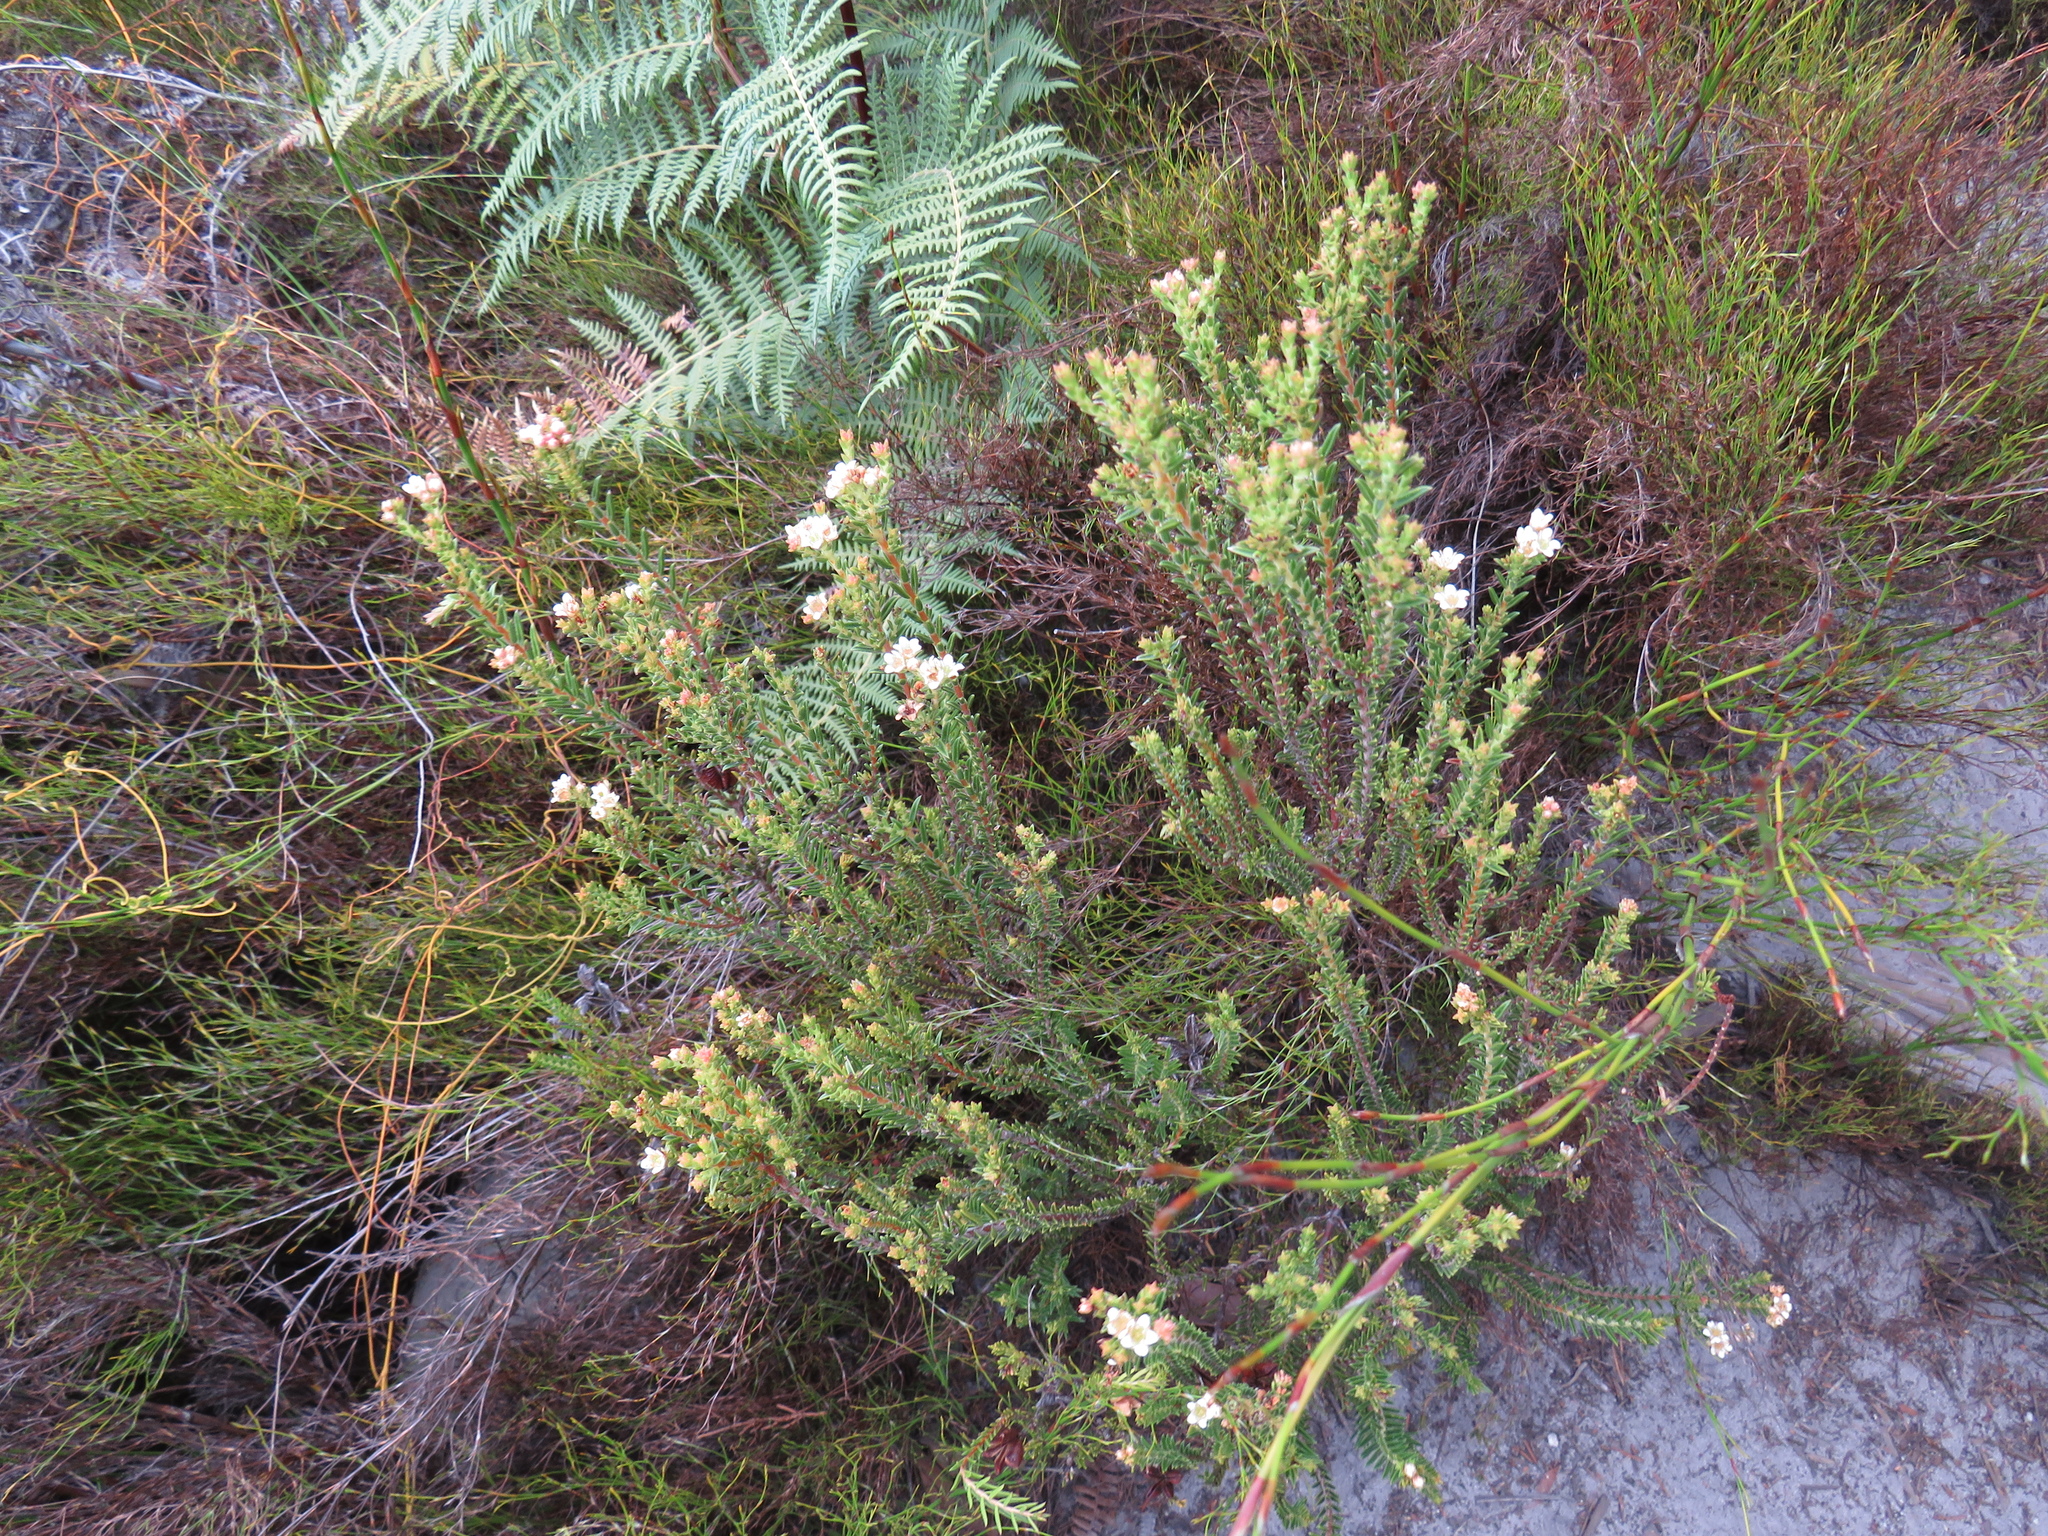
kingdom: Plantae
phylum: Tracheophyta
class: Magnoliopsida
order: Sapindales
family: Rutaceae
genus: Diosma
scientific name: Diosma oppositifolia
